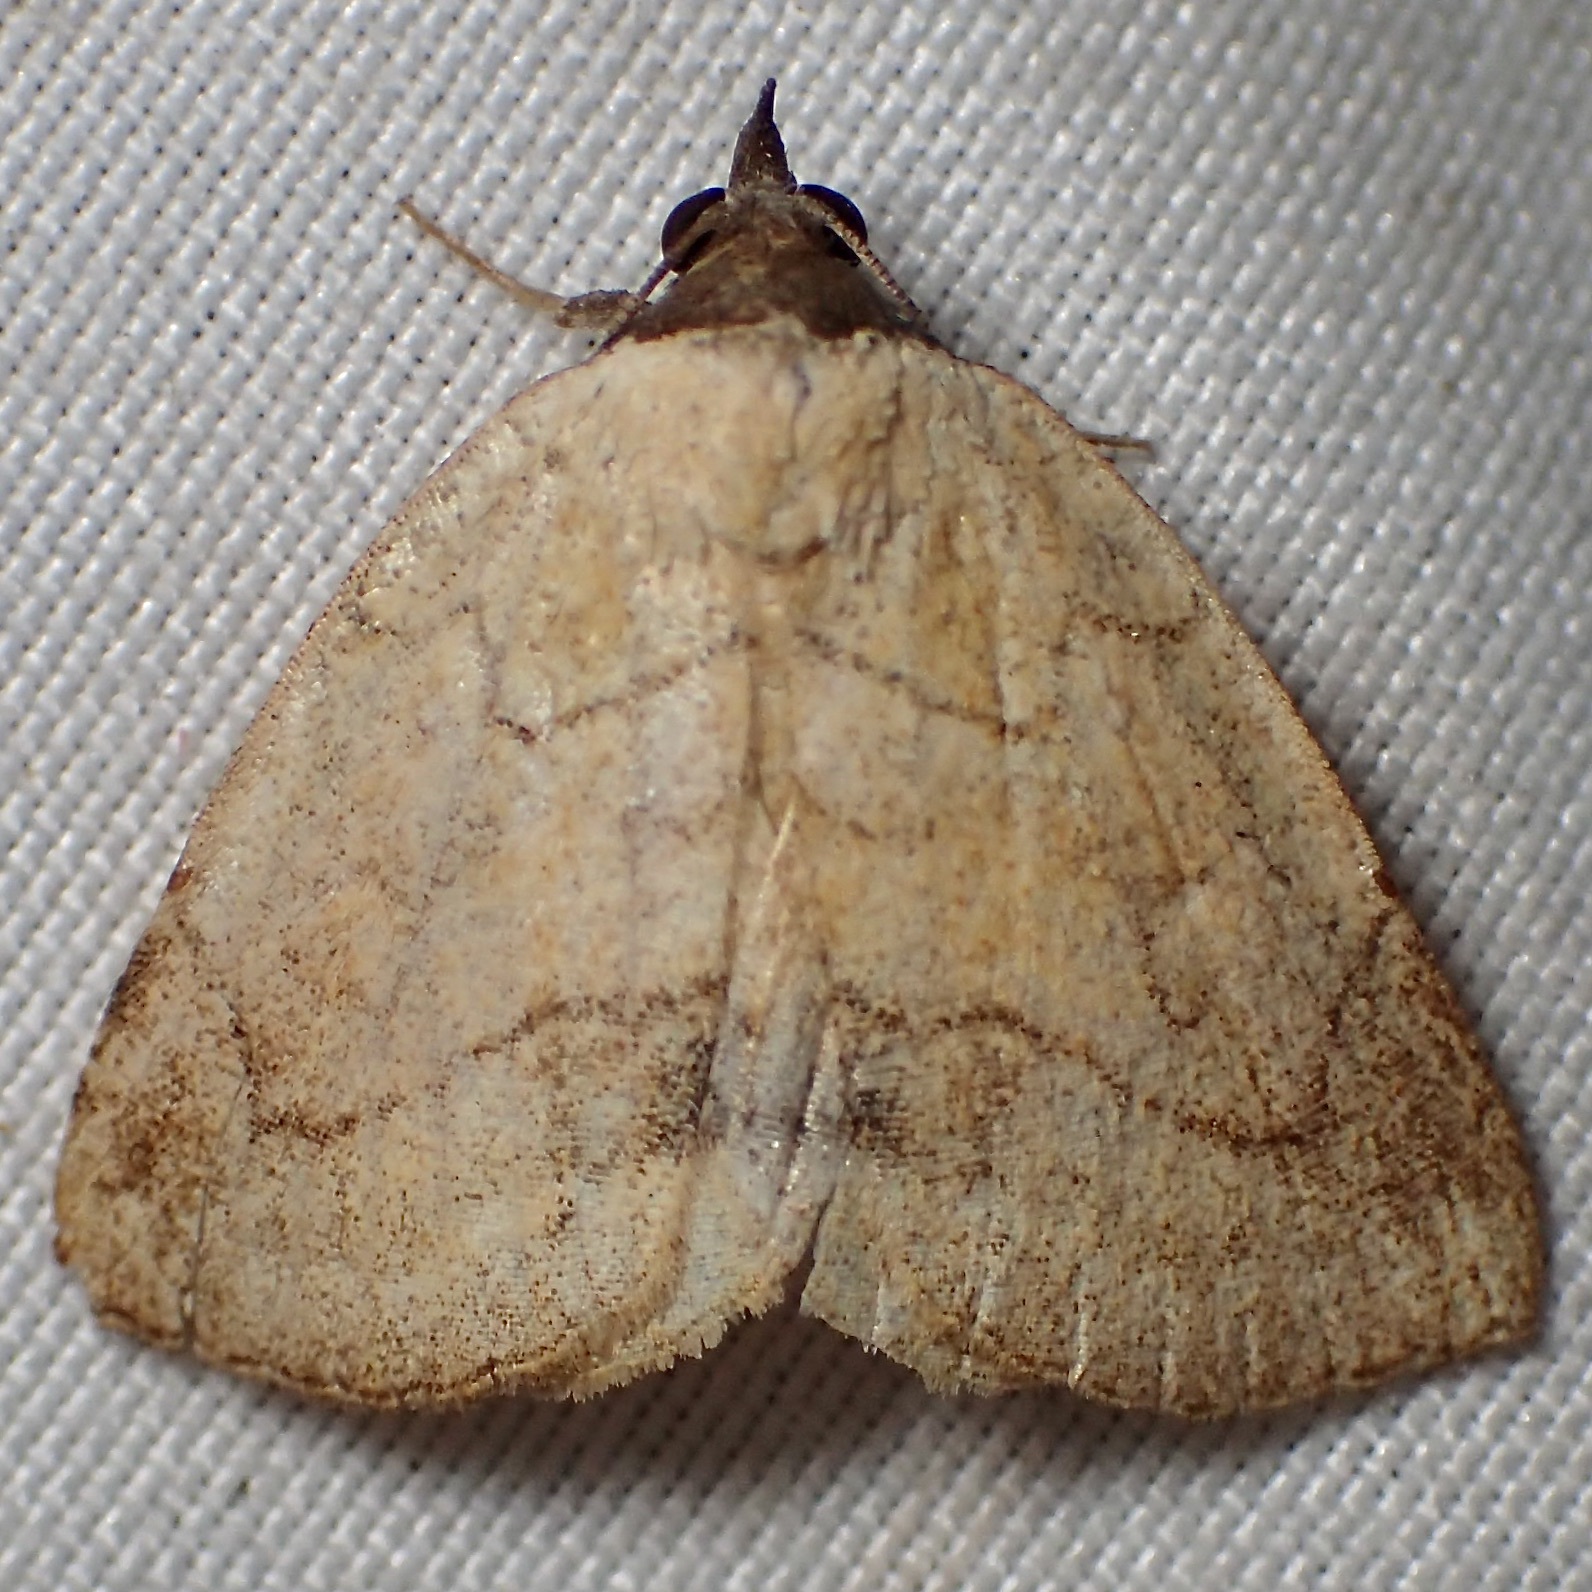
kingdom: Animalia
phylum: Arthropoda
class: Insecta
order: Lepidoptera
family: Erebidae
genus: Isogona
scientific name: Isogona punctipennis
